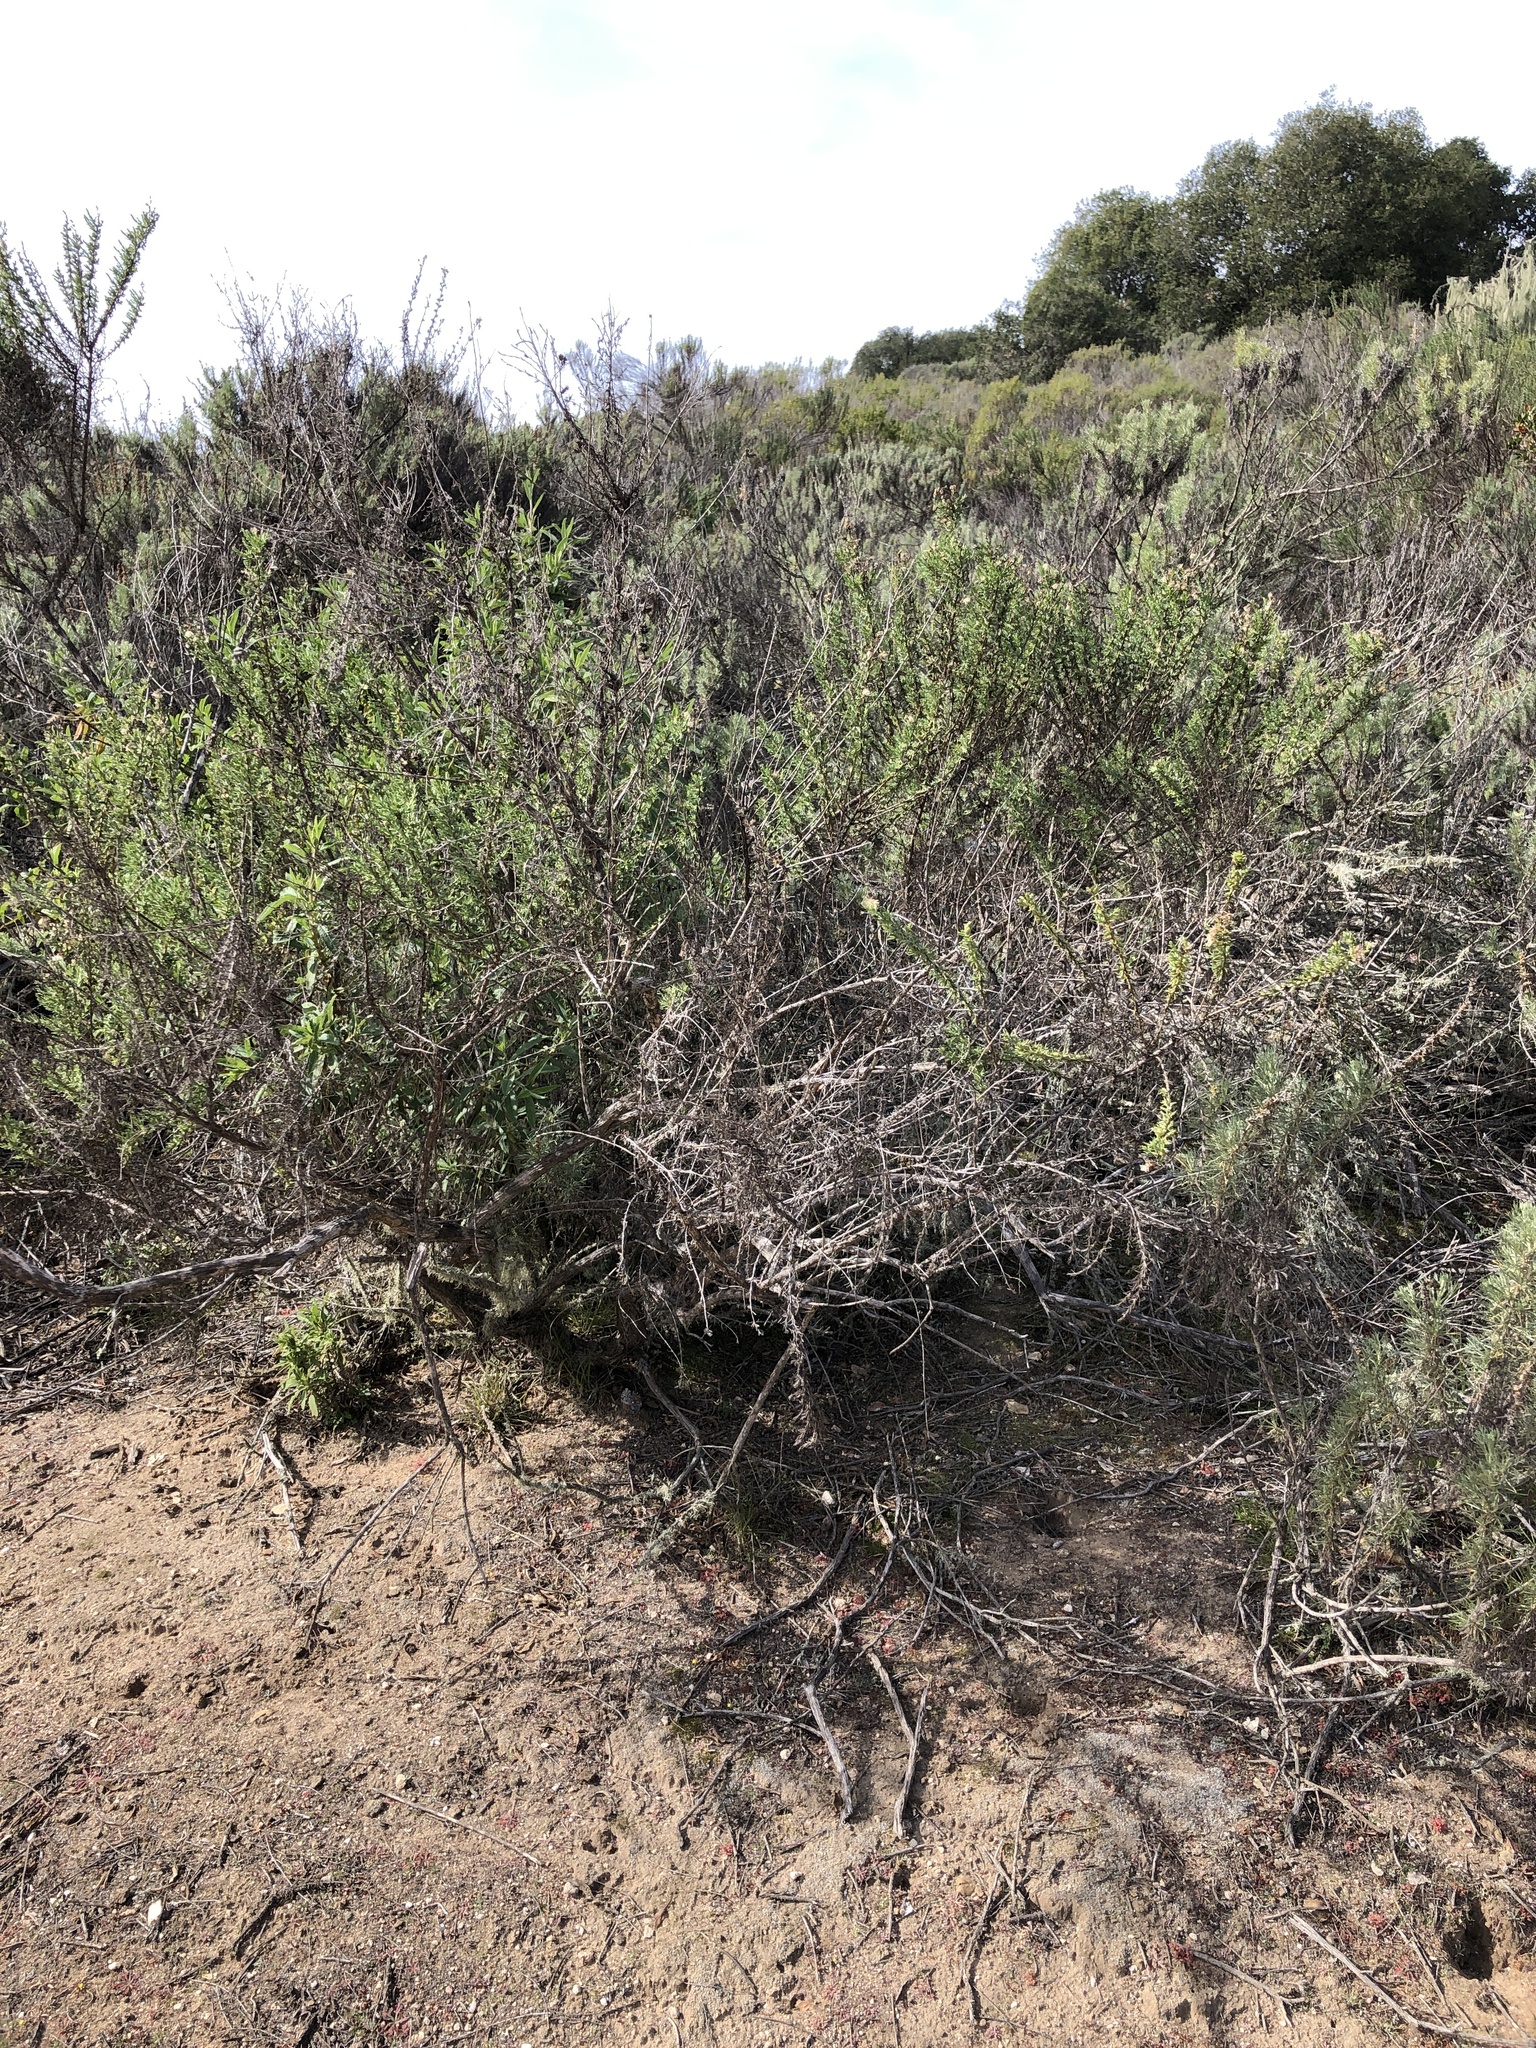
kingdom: Plantae
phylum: Tracheophyta
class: Magnoliopsida
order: Asterales
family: Asteraceae
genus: Ericameria
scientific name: Ericameria ericoides
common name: California goldenbush
